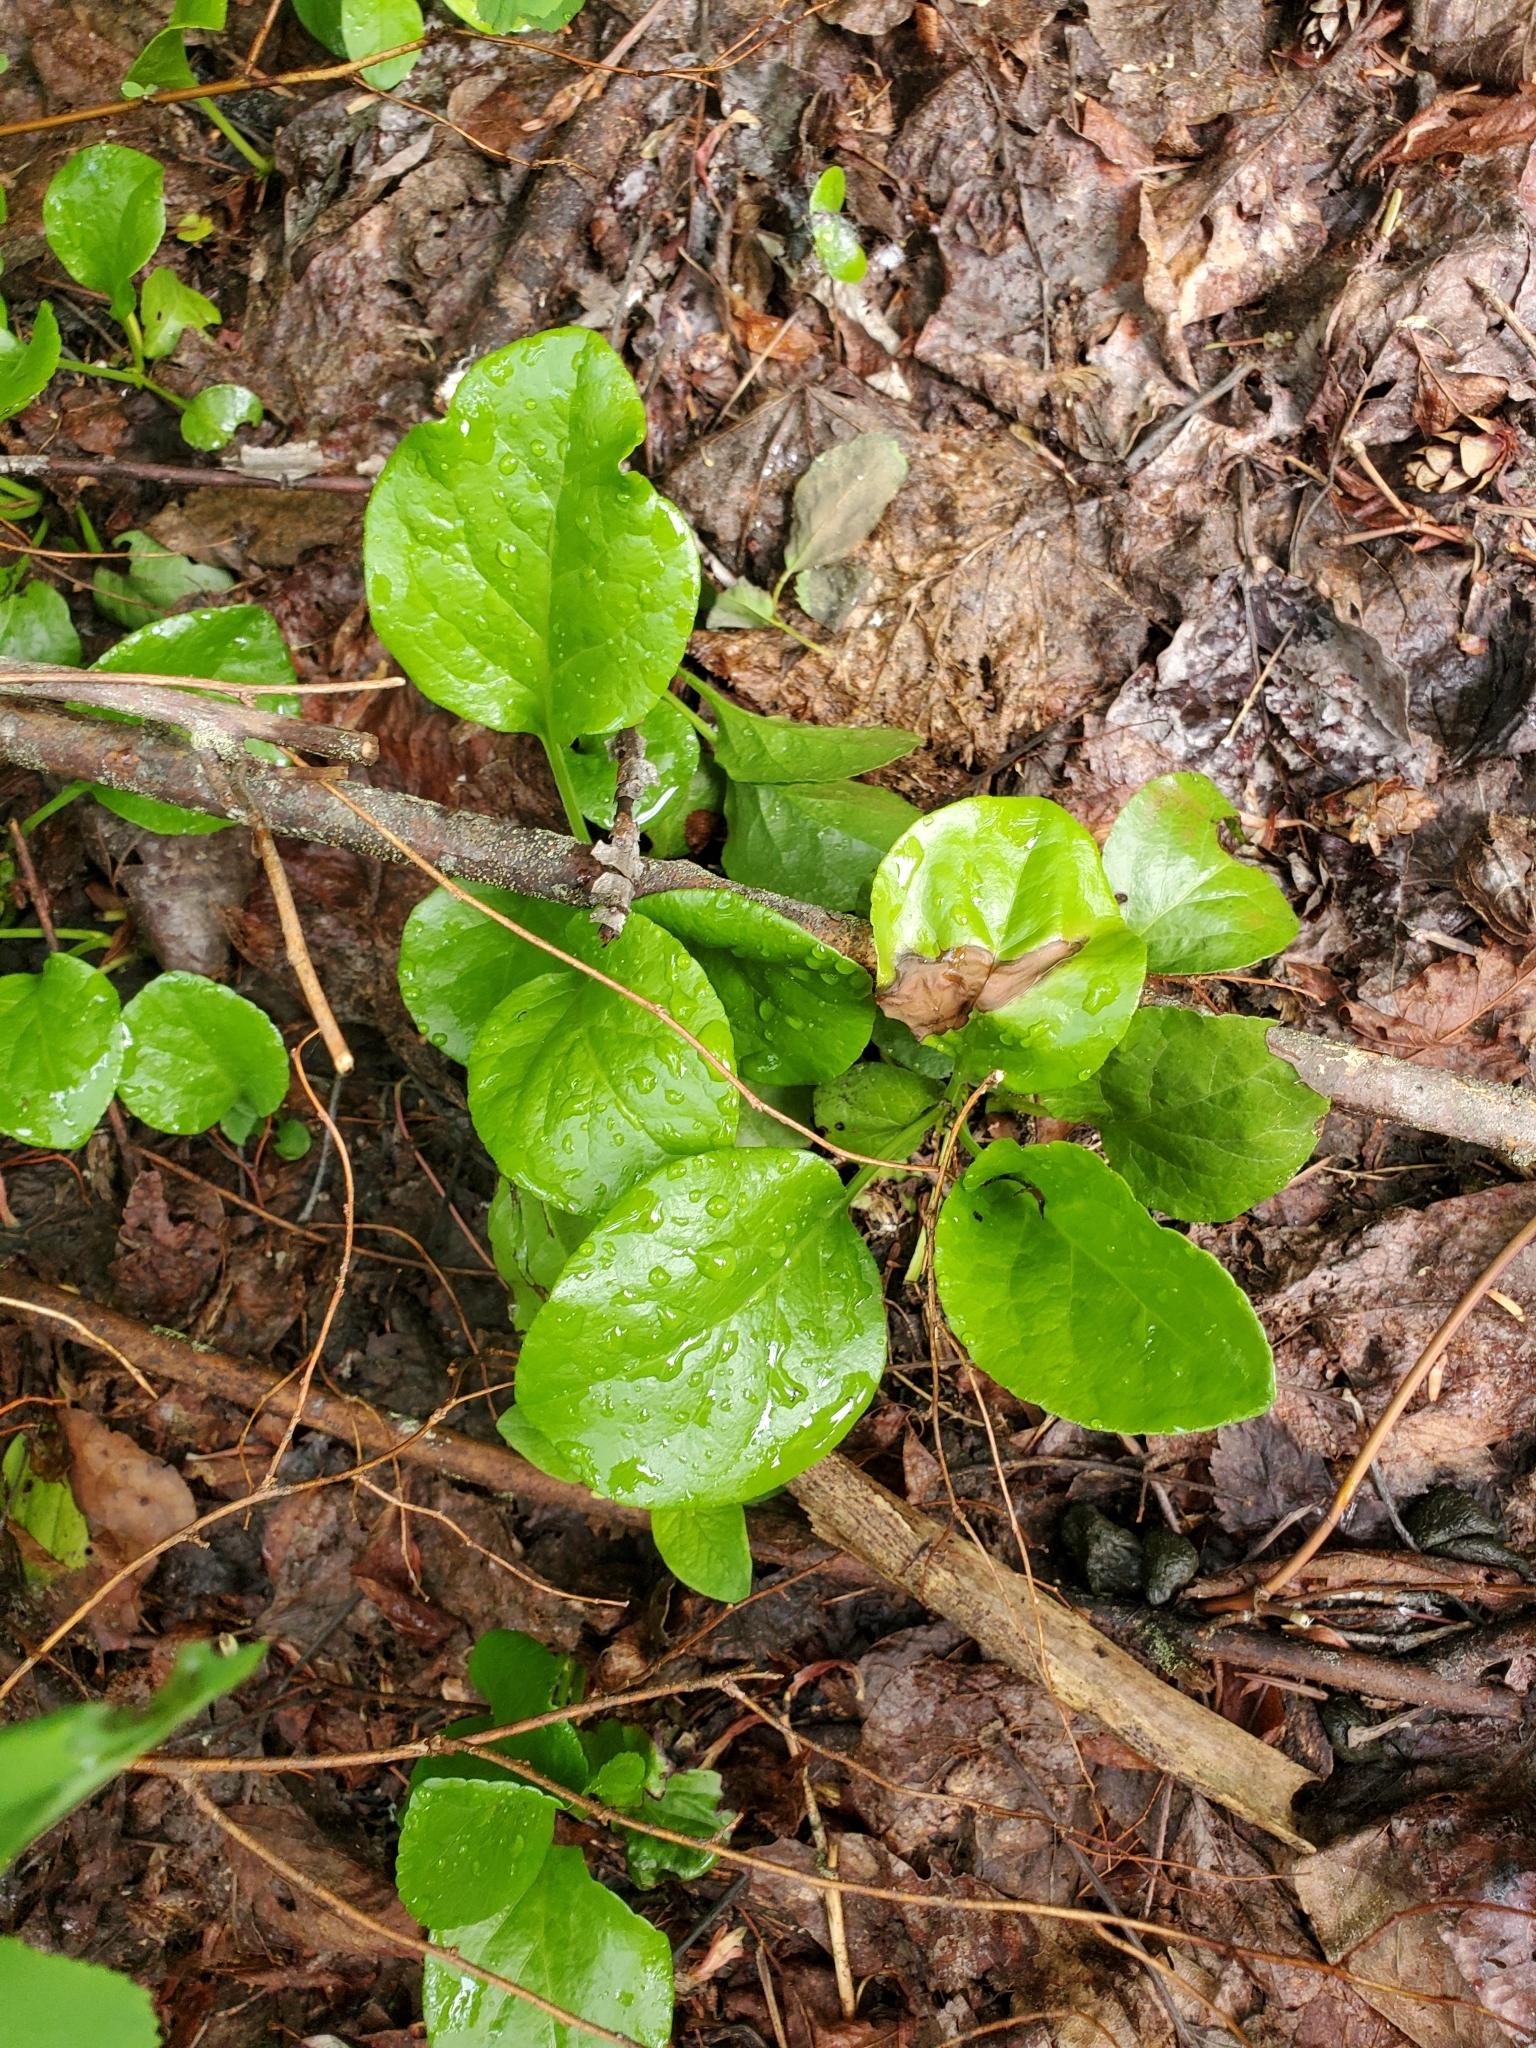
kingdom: Plantae
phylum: Tracheophyta
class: Magnoliopsida
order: Ericales
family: Ericaceae
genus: Pyrola
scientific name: Pyrola asarifolia
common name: Bog wintergreen
